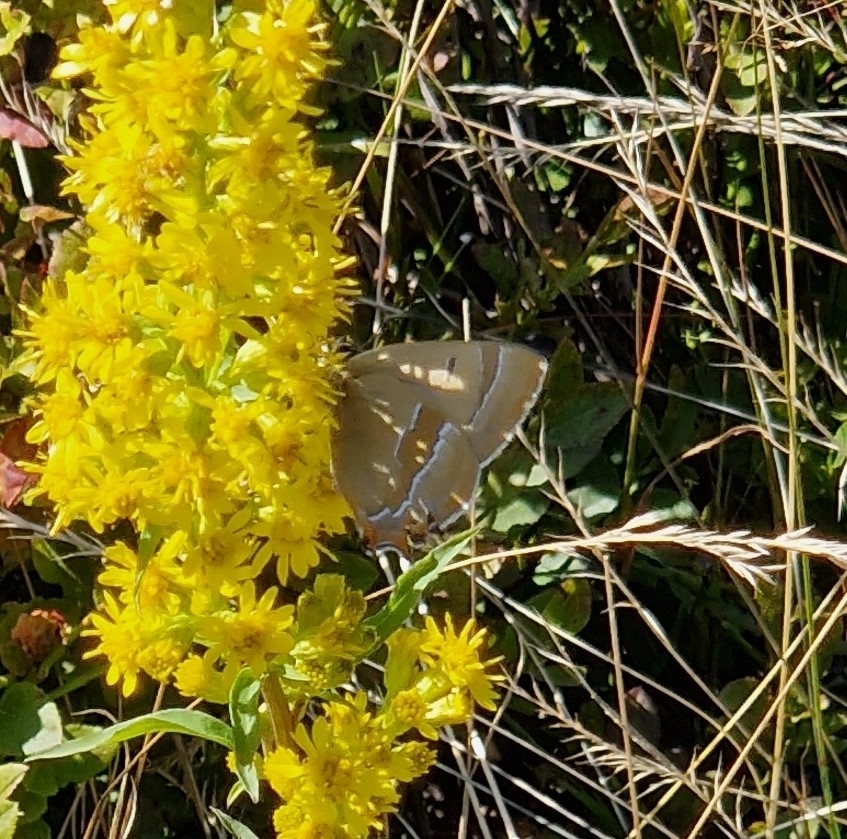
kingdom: Animalia
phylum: Arthropoda
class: Insecta
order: Lepidoptera
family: Lycaenidae
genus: Thecla
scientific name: Thecla betulae
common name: Brown hairstreak
